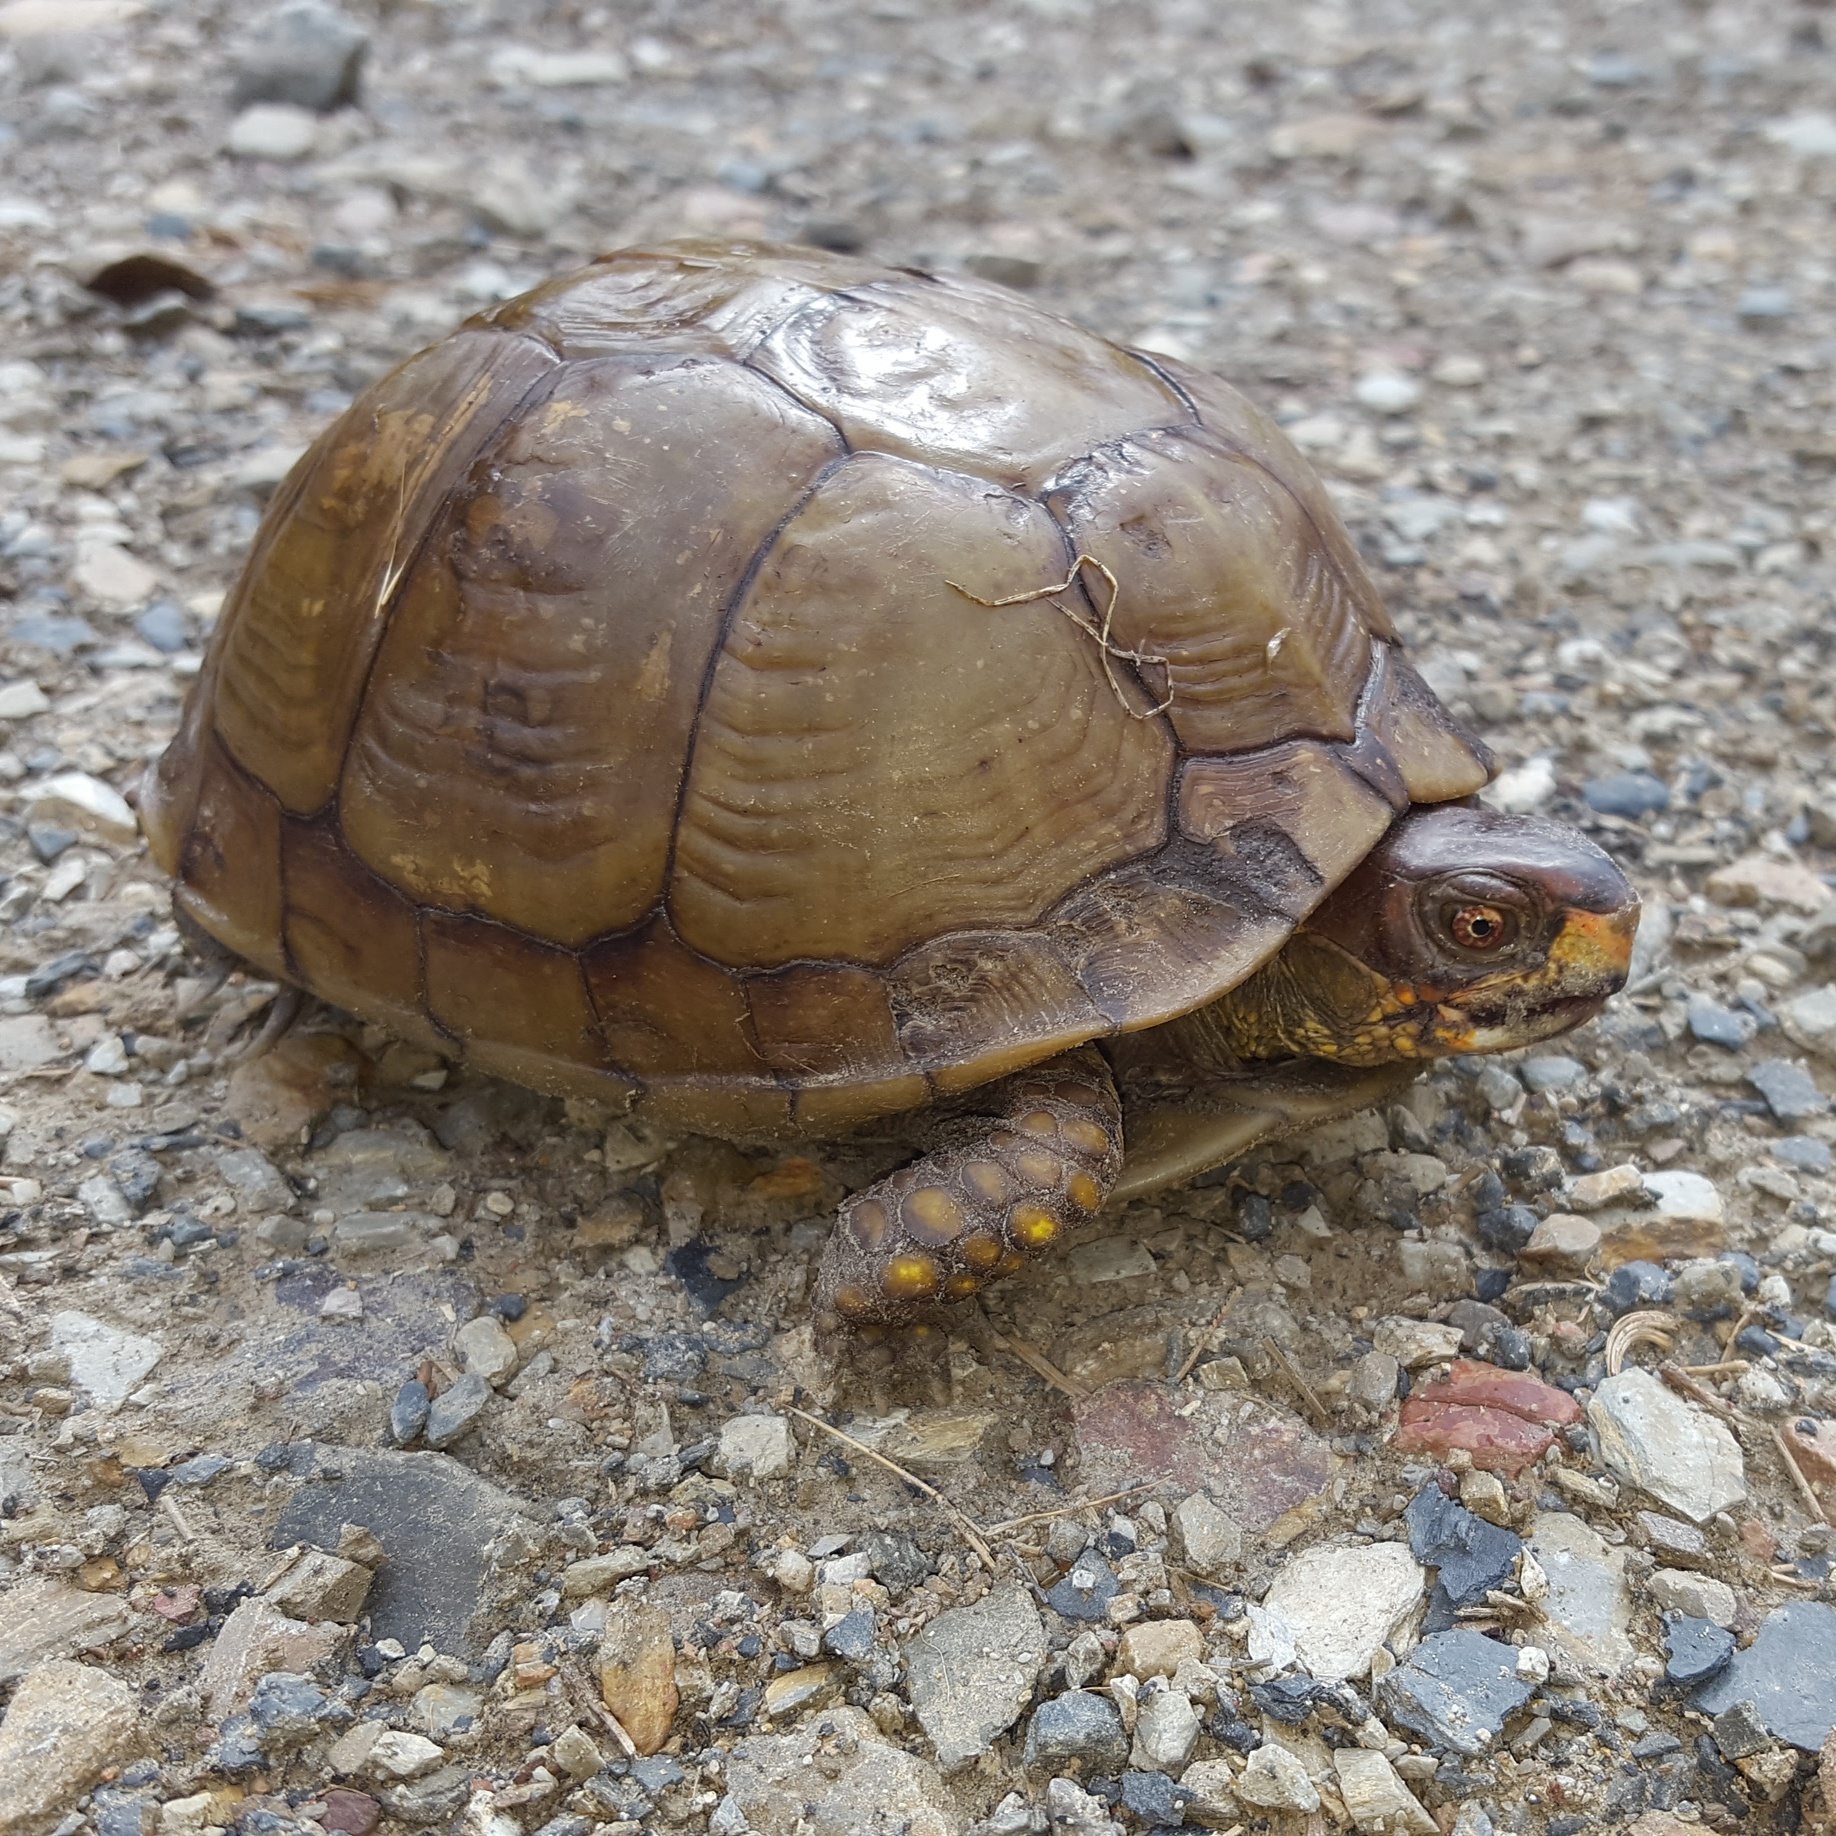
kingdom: Animalia
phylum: Chordata
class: Testudines
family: Emydidae
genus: Terrapene
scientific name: Terrapene carolina
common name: Common box turtle
